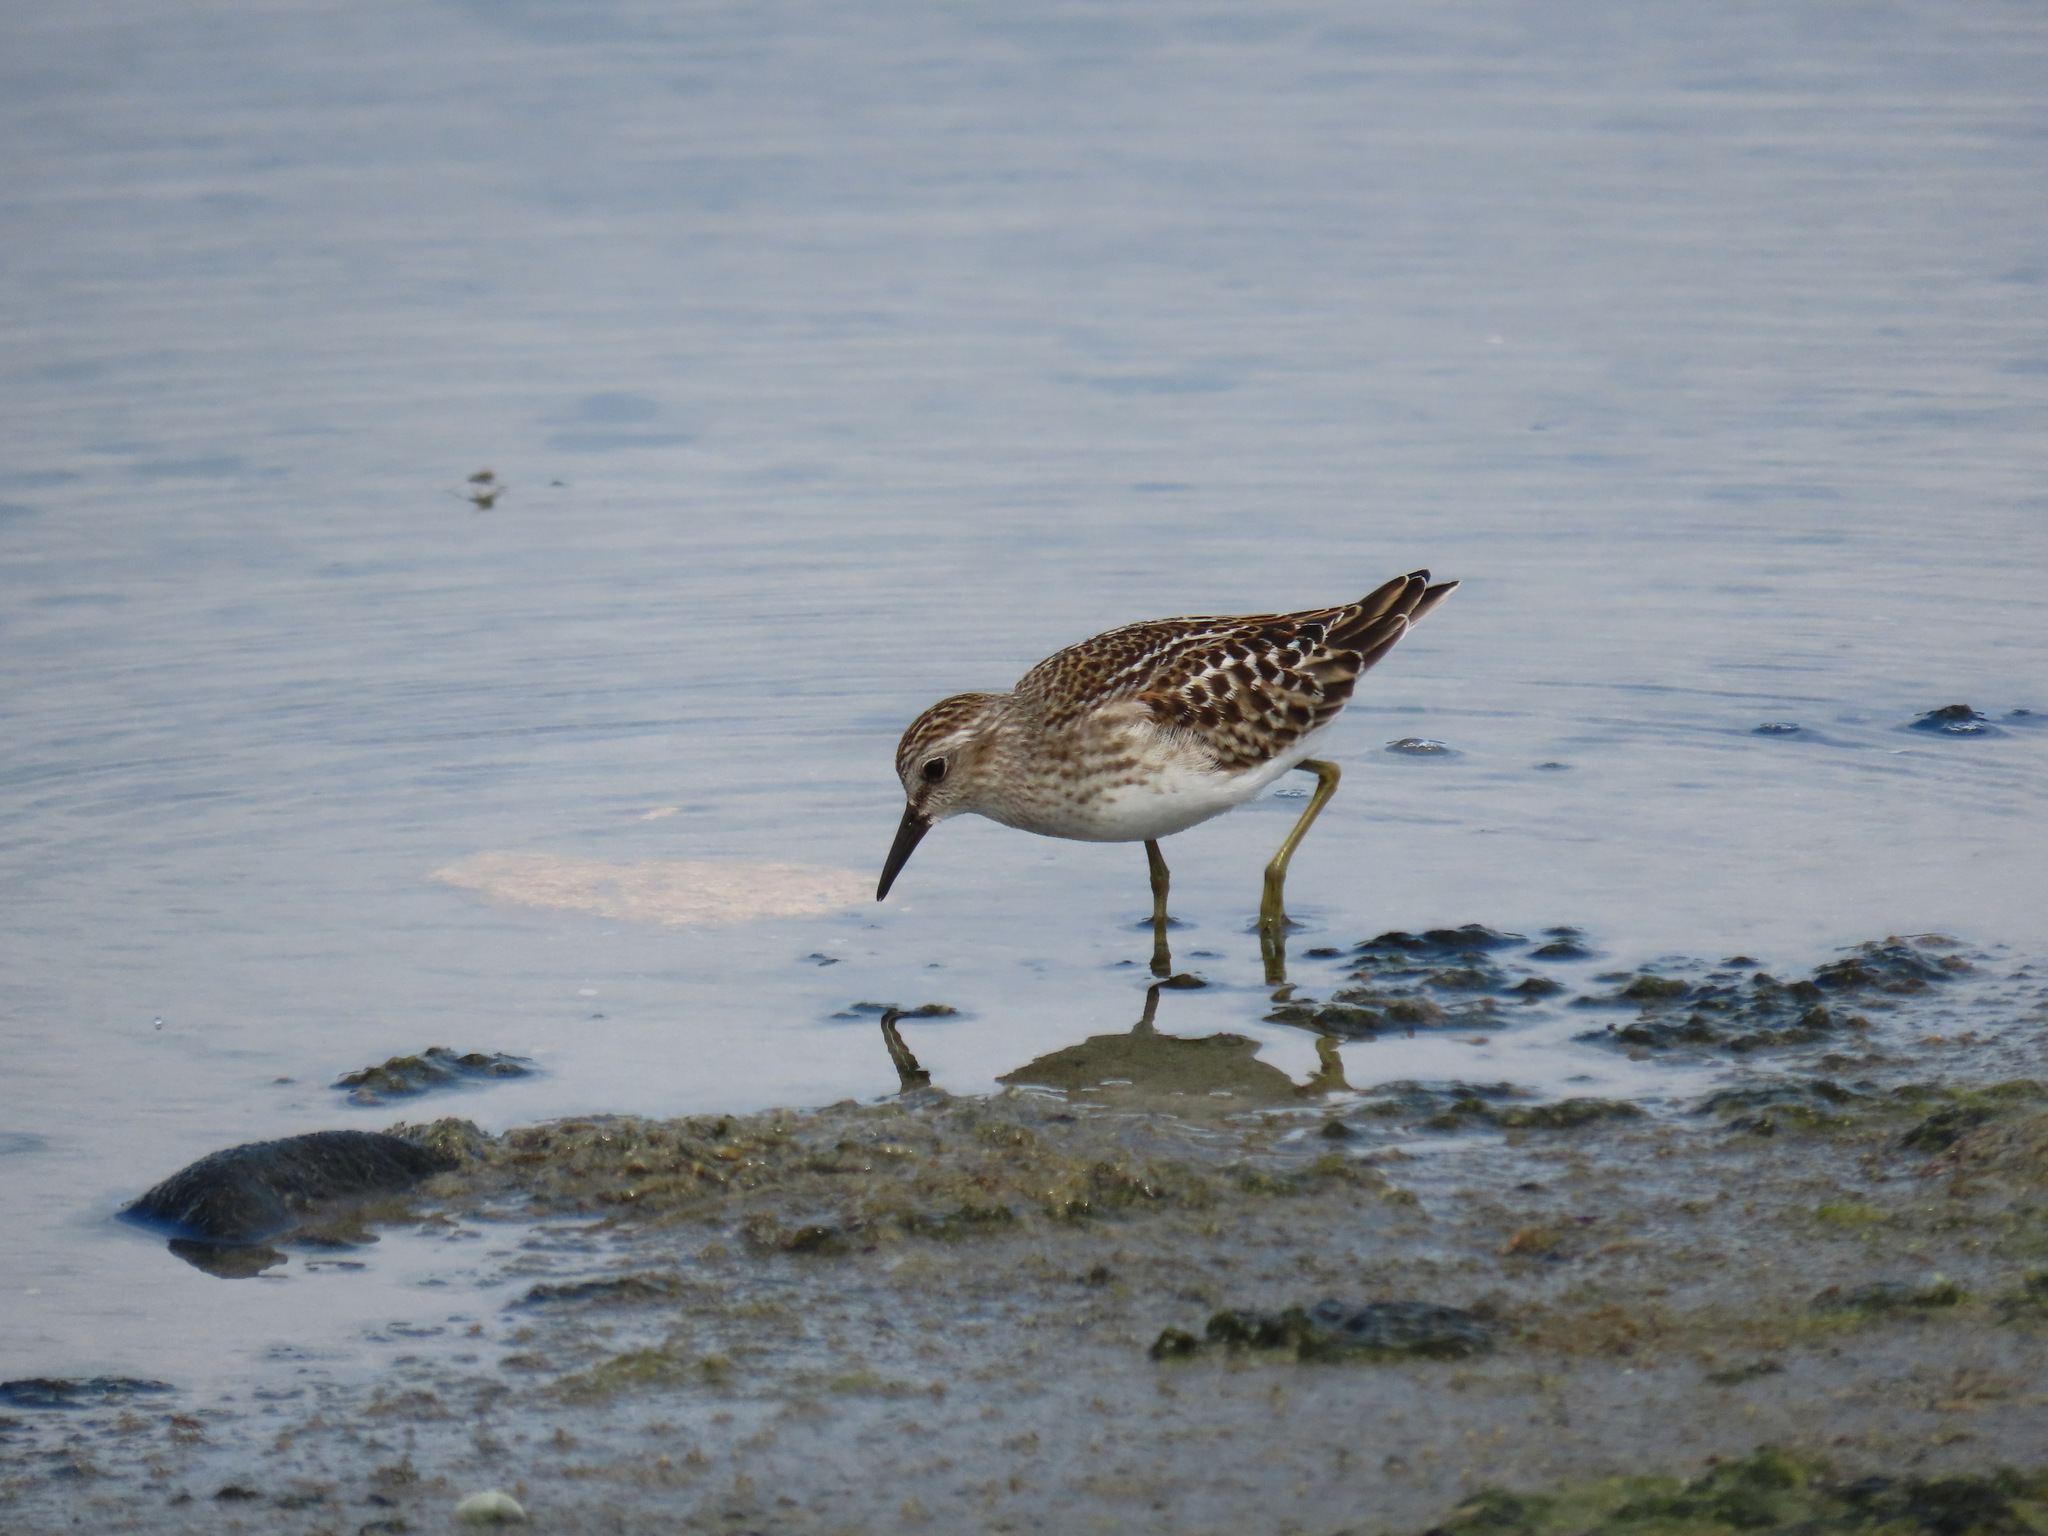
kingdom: Animalia
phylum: Chordata
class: Aves
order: Charadriiformes
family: Scolopacidae
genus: Calidris
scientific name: Calidris minutilla
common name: Least sandpiper
